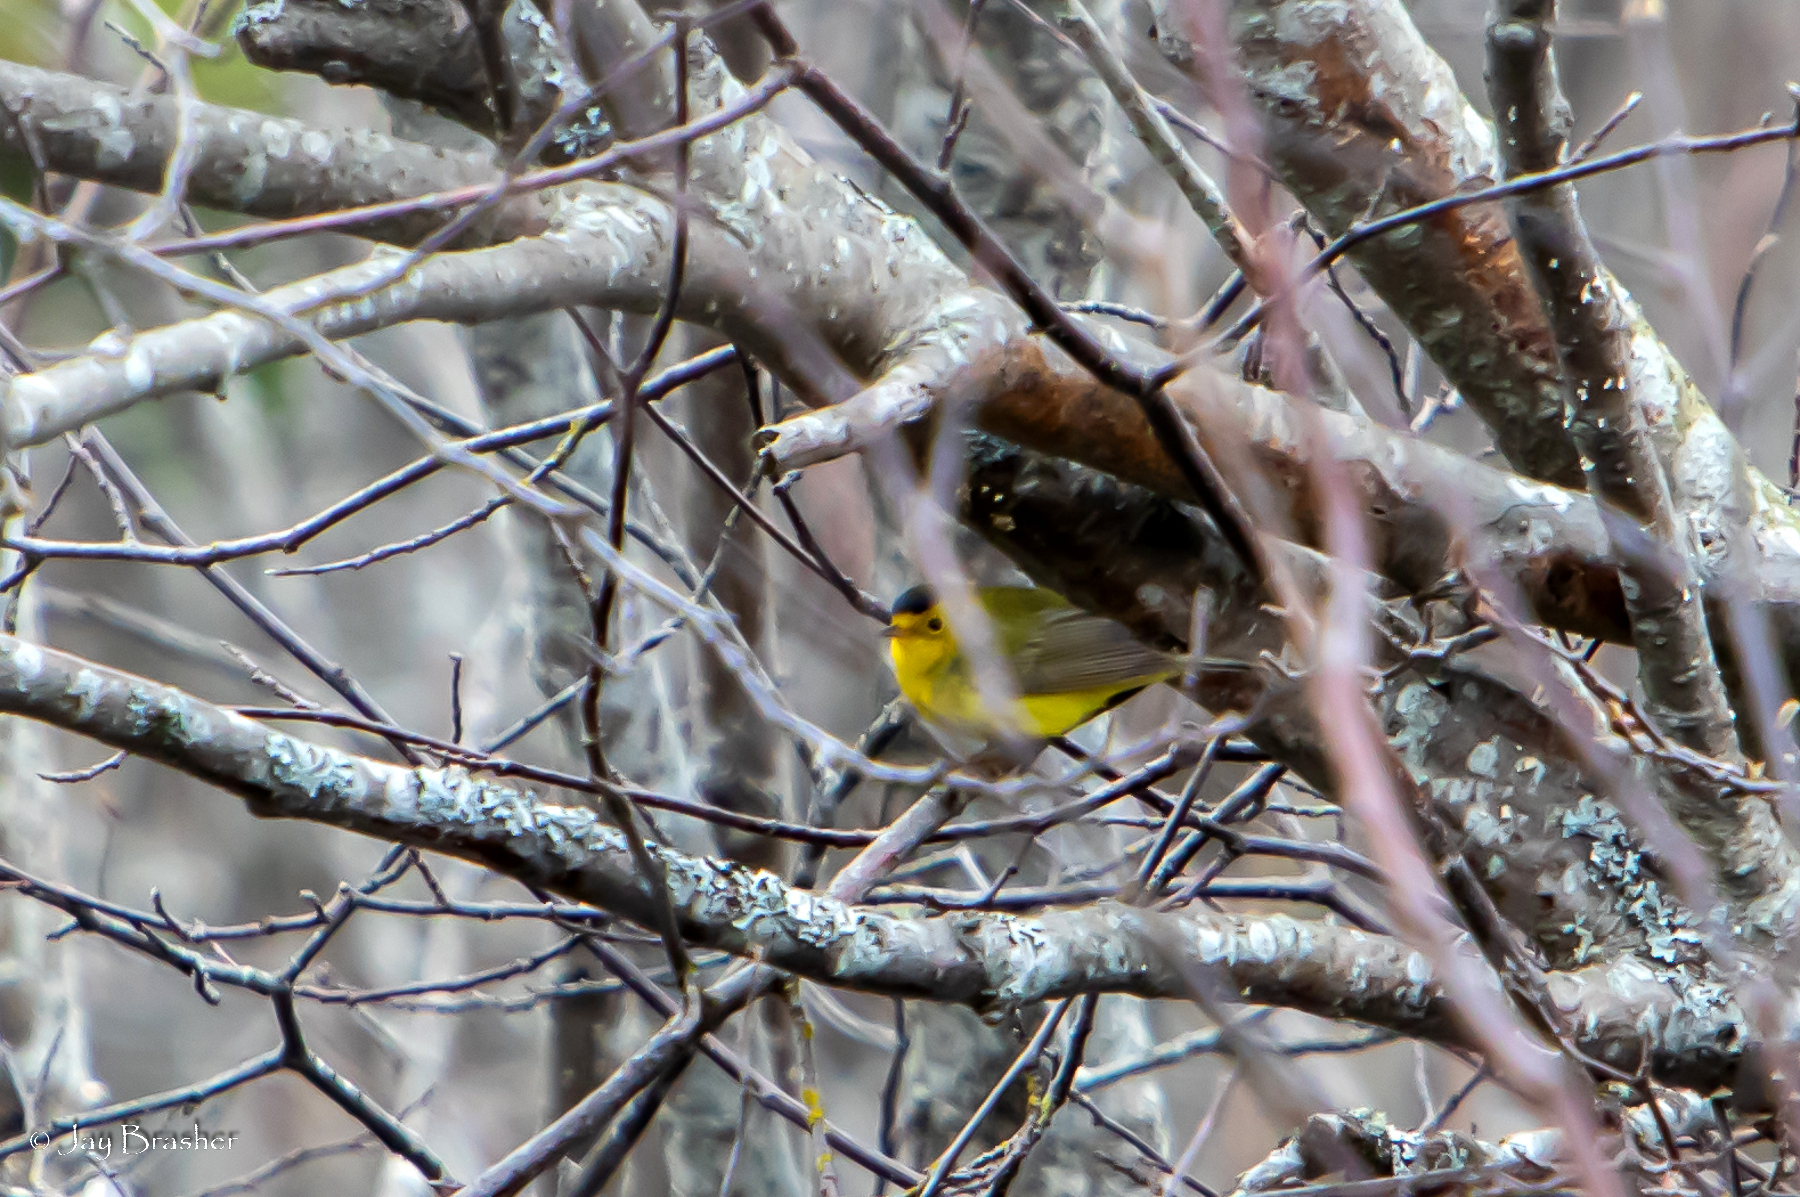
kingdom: Animalia
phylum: Chordata
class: Aves
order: Passeriformes
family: Parulidae
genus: Cardellina
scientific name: Cardellina pusilla
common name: Wilson's warbler
